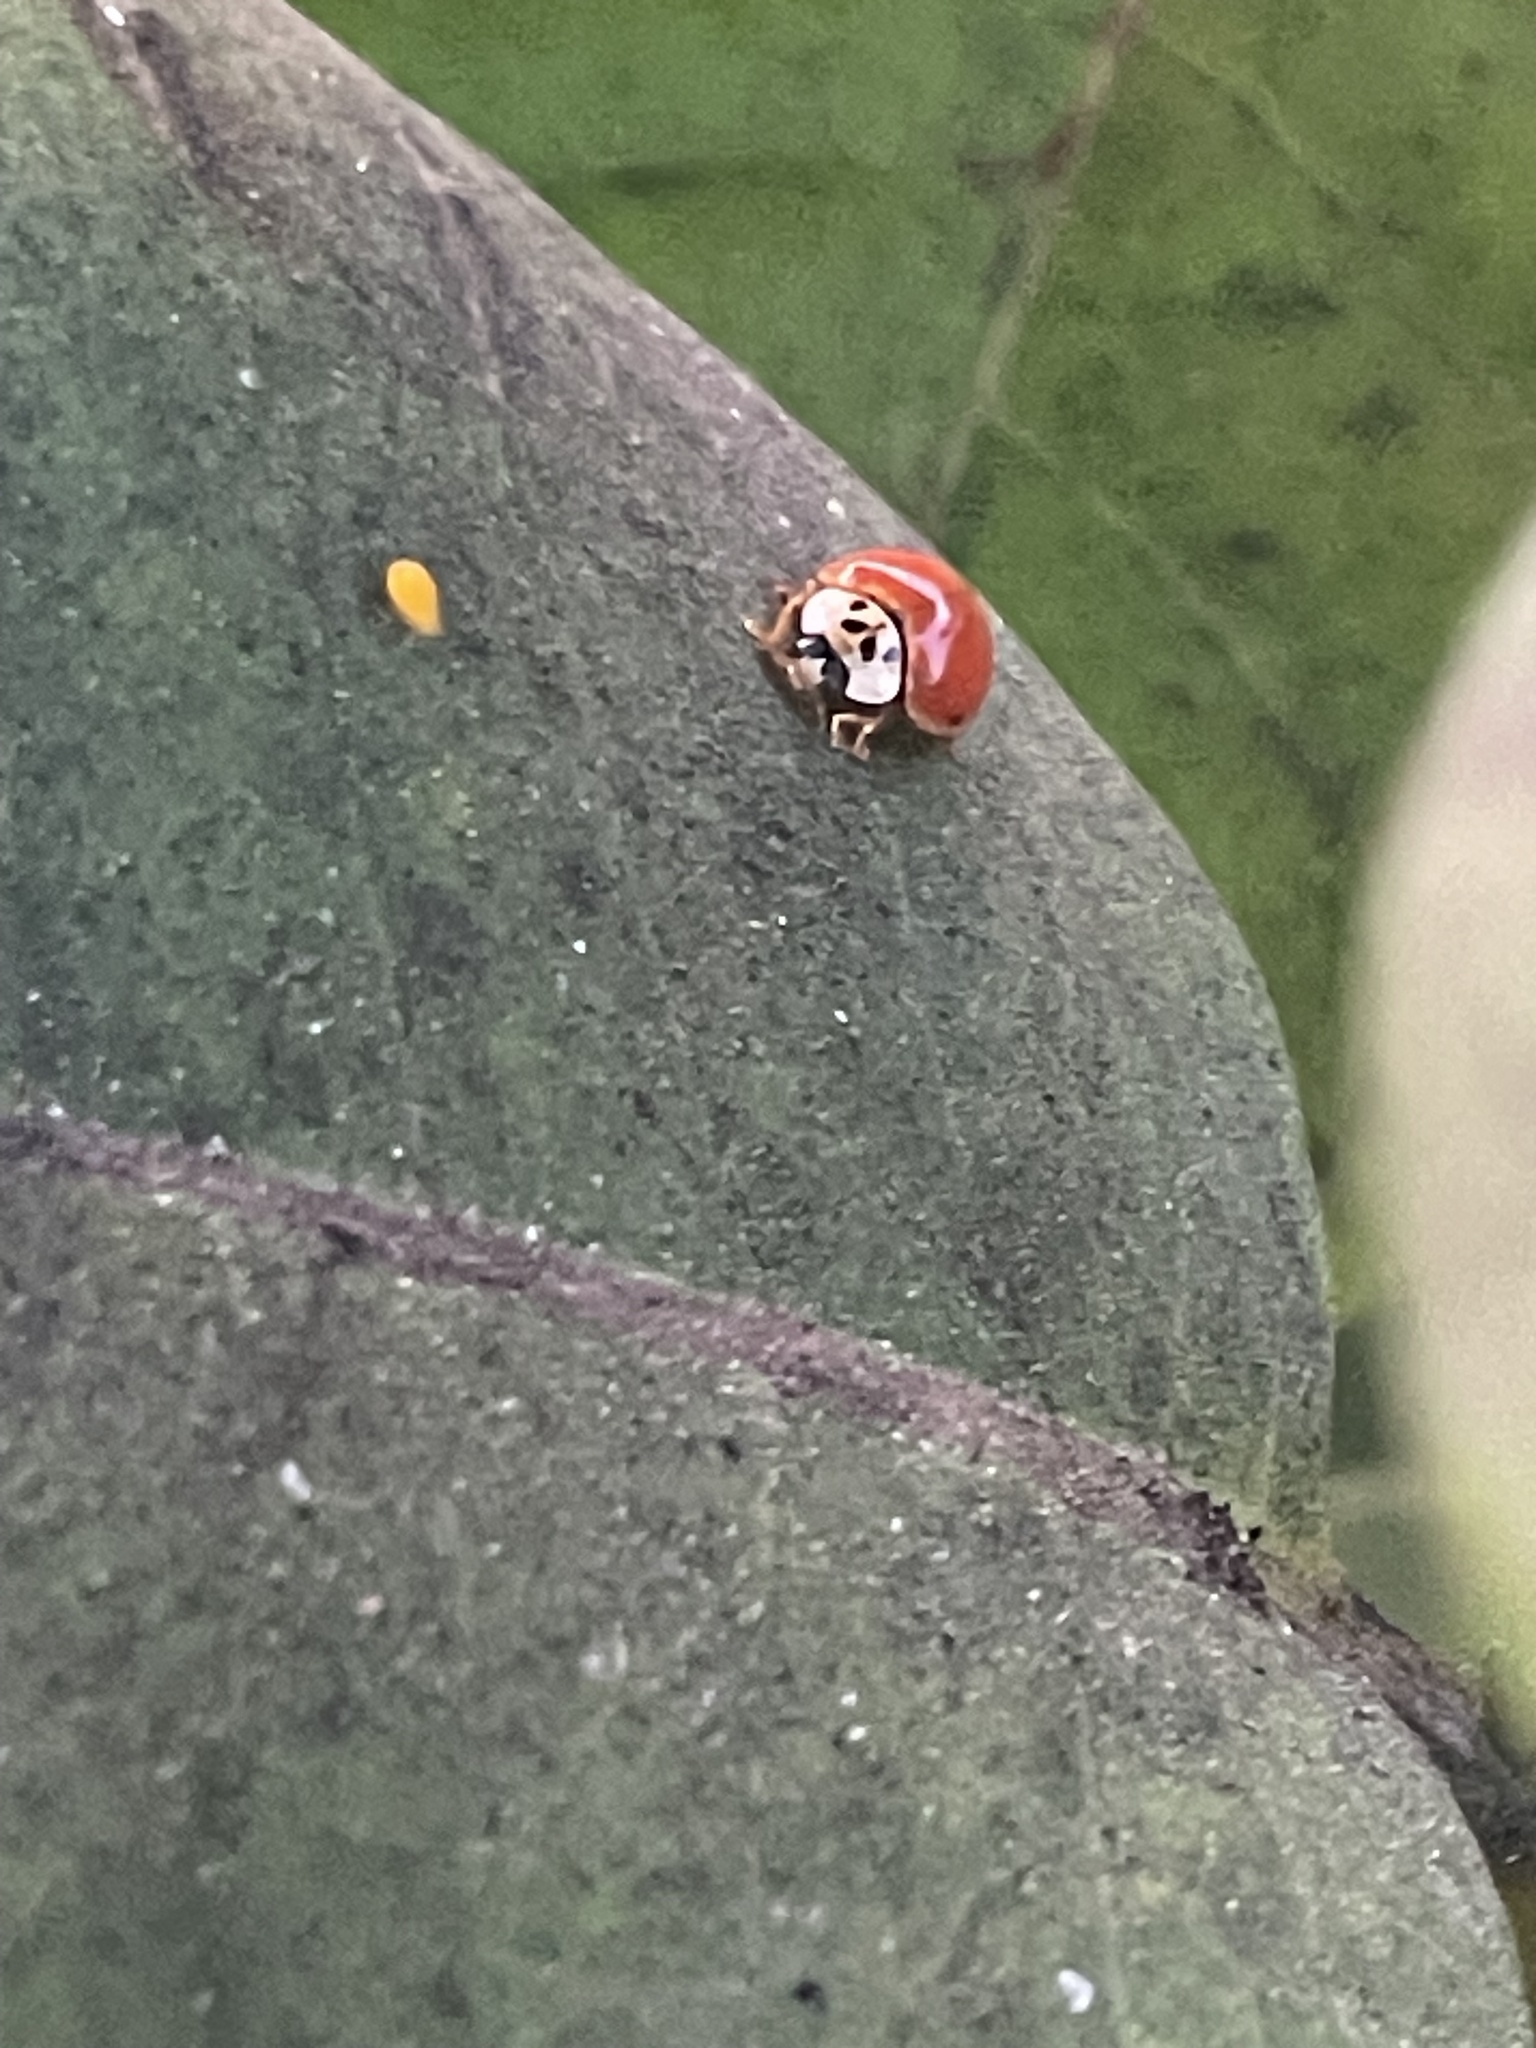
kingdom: Animalia
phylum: Arthropoda
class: Insecta
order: Coleoptera
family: Coccinellidae
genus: Harmonia
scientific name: Harmonia axyridis
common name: Harlequin ladybird
